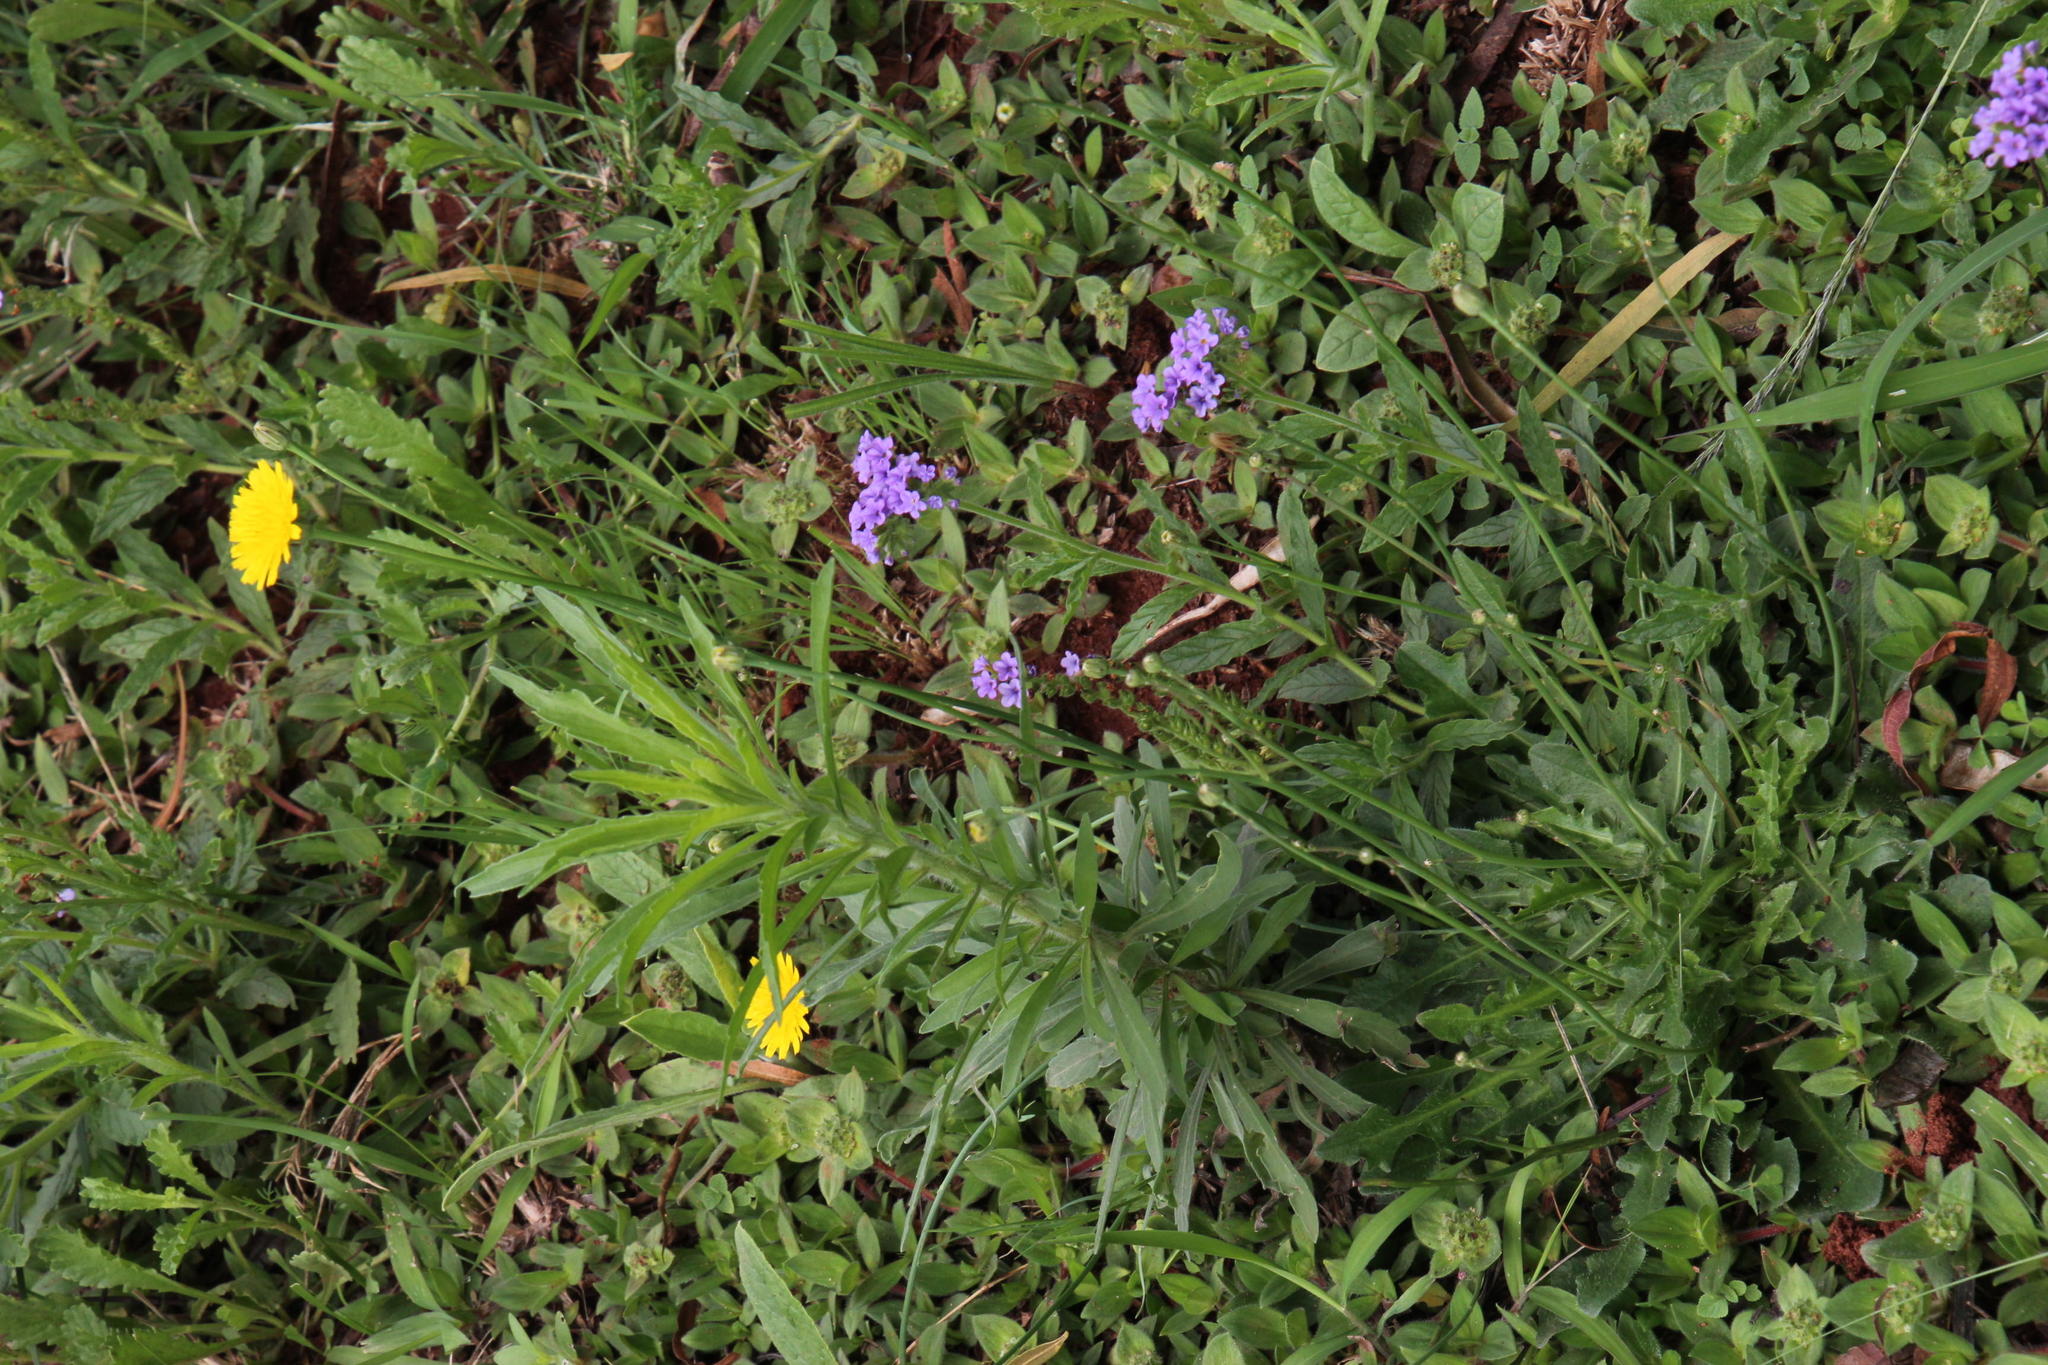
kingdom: Plantae
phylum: Tracheophyta
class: Magnoliopsida
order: Asterales
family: Asteraceae
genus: Hypochaeris
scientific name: Hypochaeris radicata
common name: Flatweed
